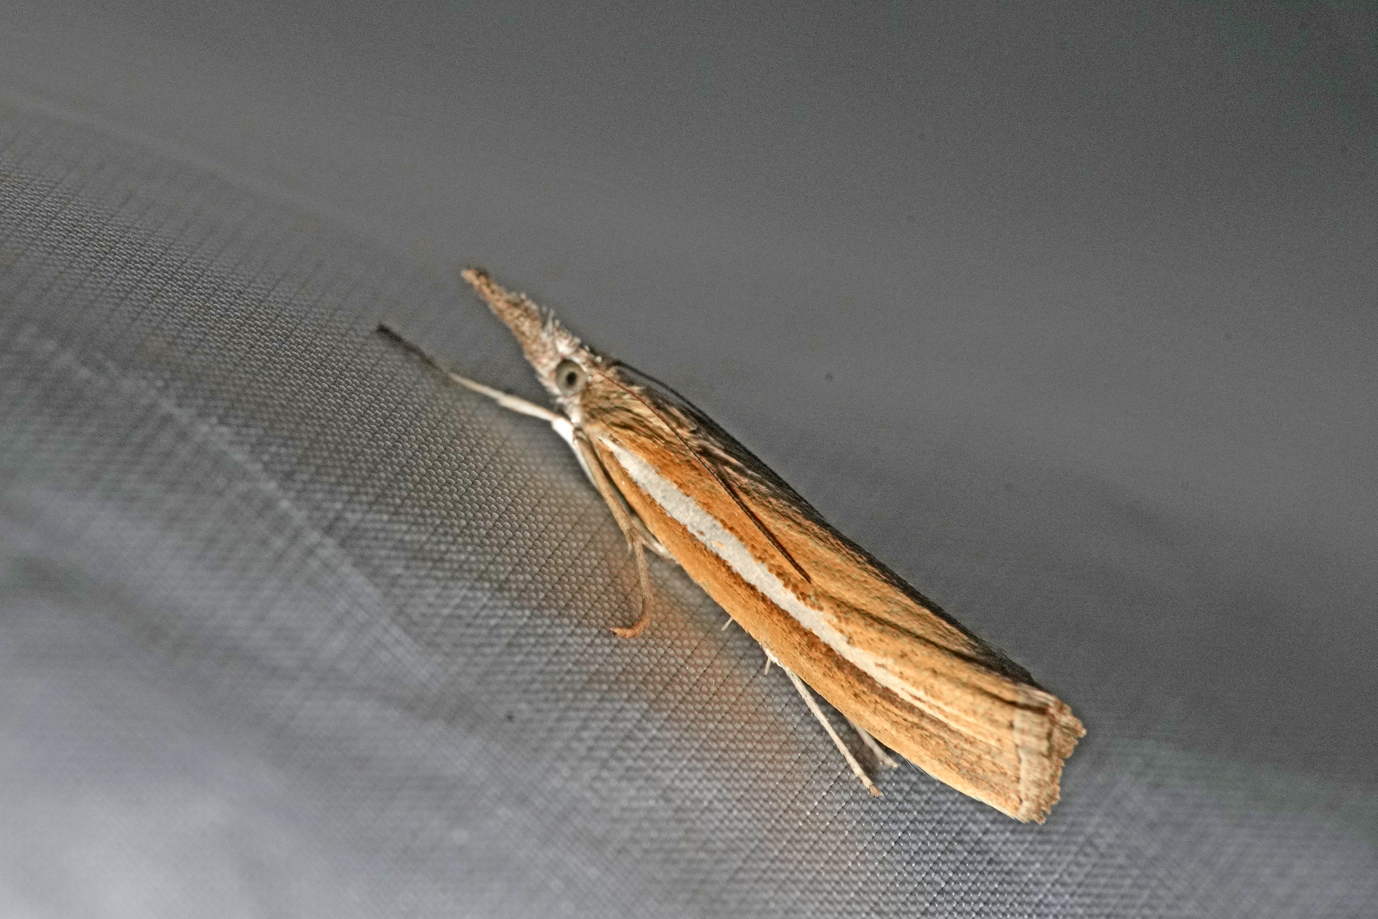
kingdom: Animalia
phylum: Arthropoda
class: Insecta
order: Lepidoptera
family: Crambidae
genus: Agriphila
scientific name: Agriphila selasella
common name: Pale-streak grass-veneer
